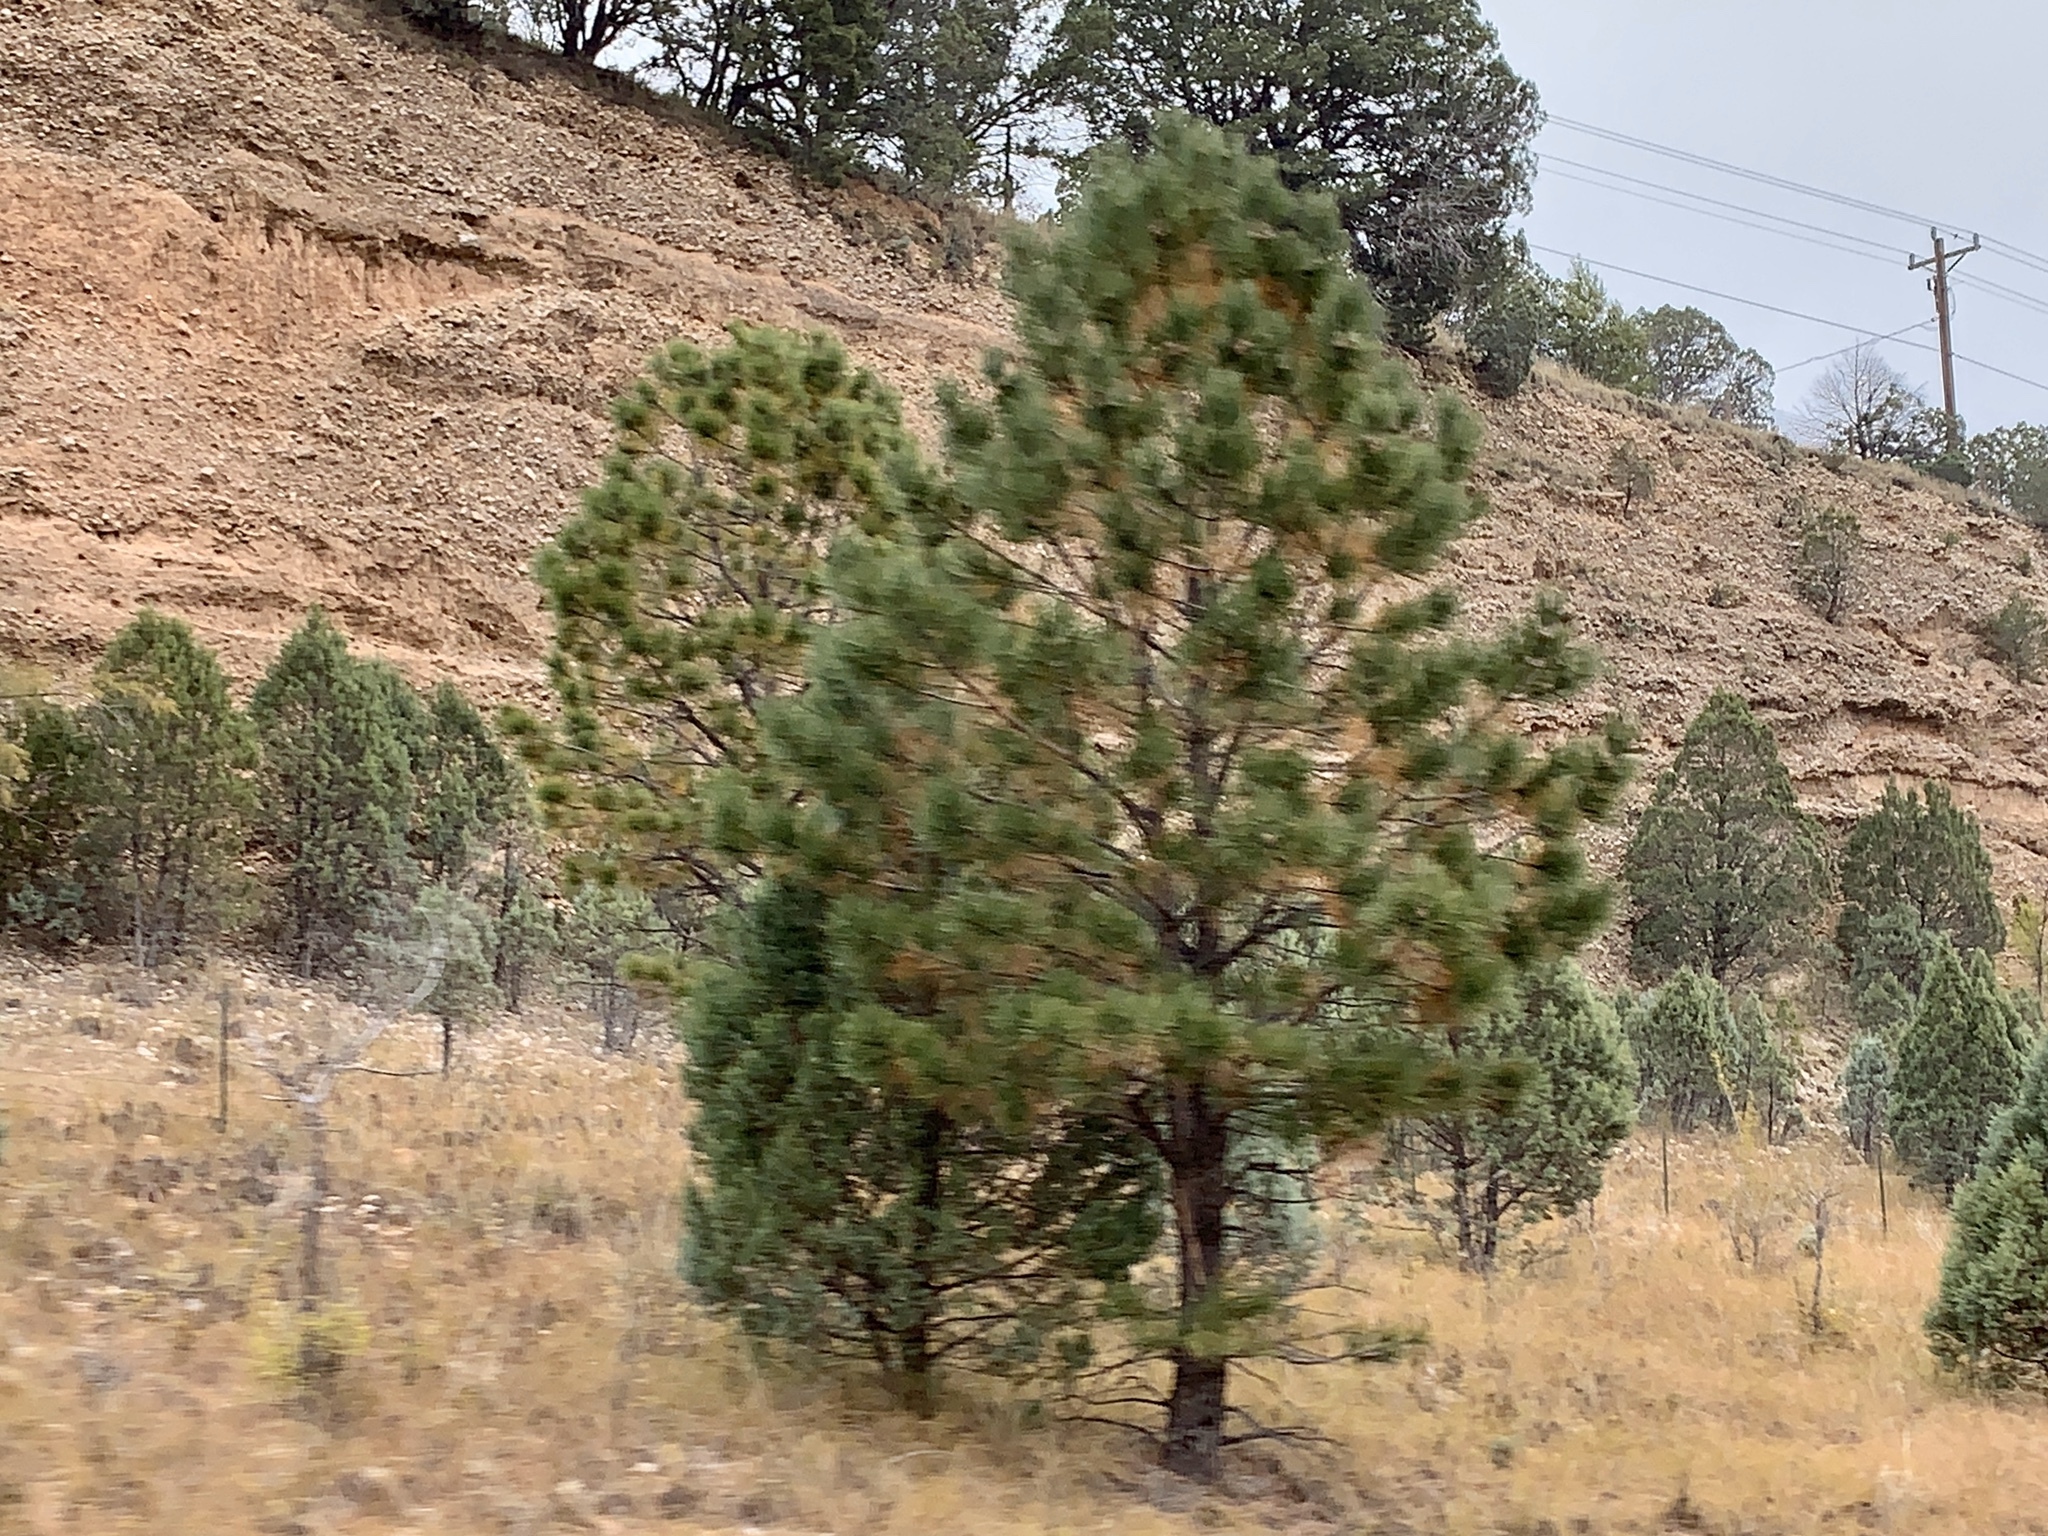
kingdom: Plantae
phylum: Tracheophyta
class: Pinopsida
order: Pinales
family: Pinaceae
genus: Pinus
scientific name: Pinus ponderosa
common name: Western yellow-pine
